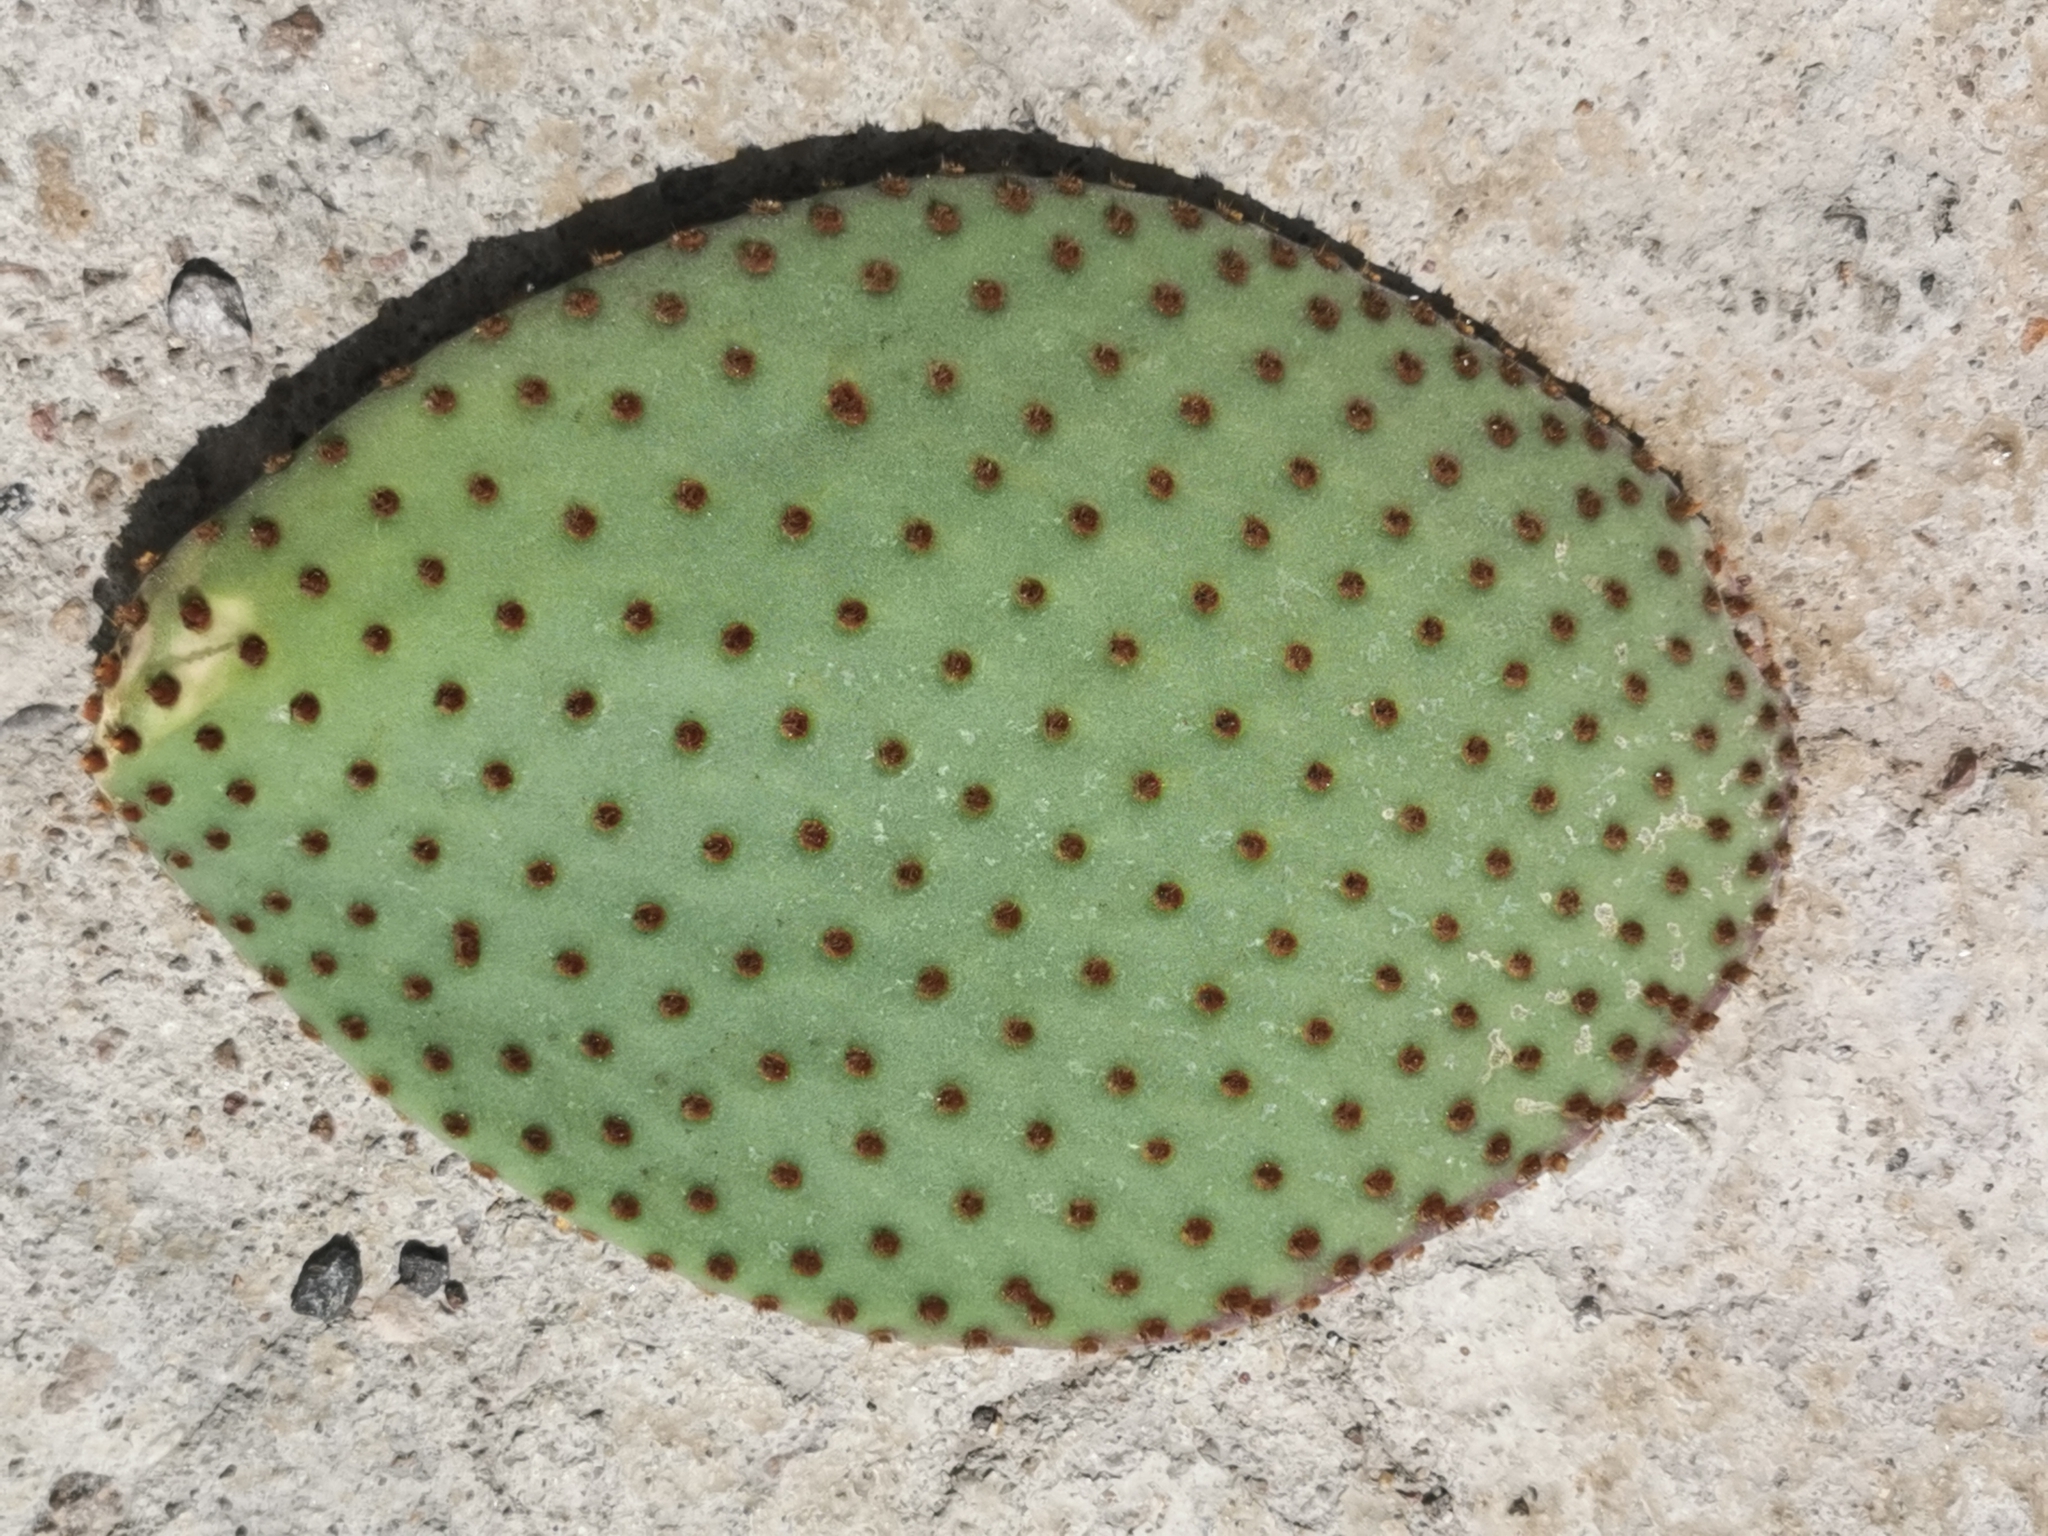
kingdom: Plantae
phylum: Tracheophyta
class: Magnoliopsida
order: Caryophyllales
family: Cactaceae
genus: Opuntia
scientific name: Opuntia rufida
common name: Blind pricklypear
